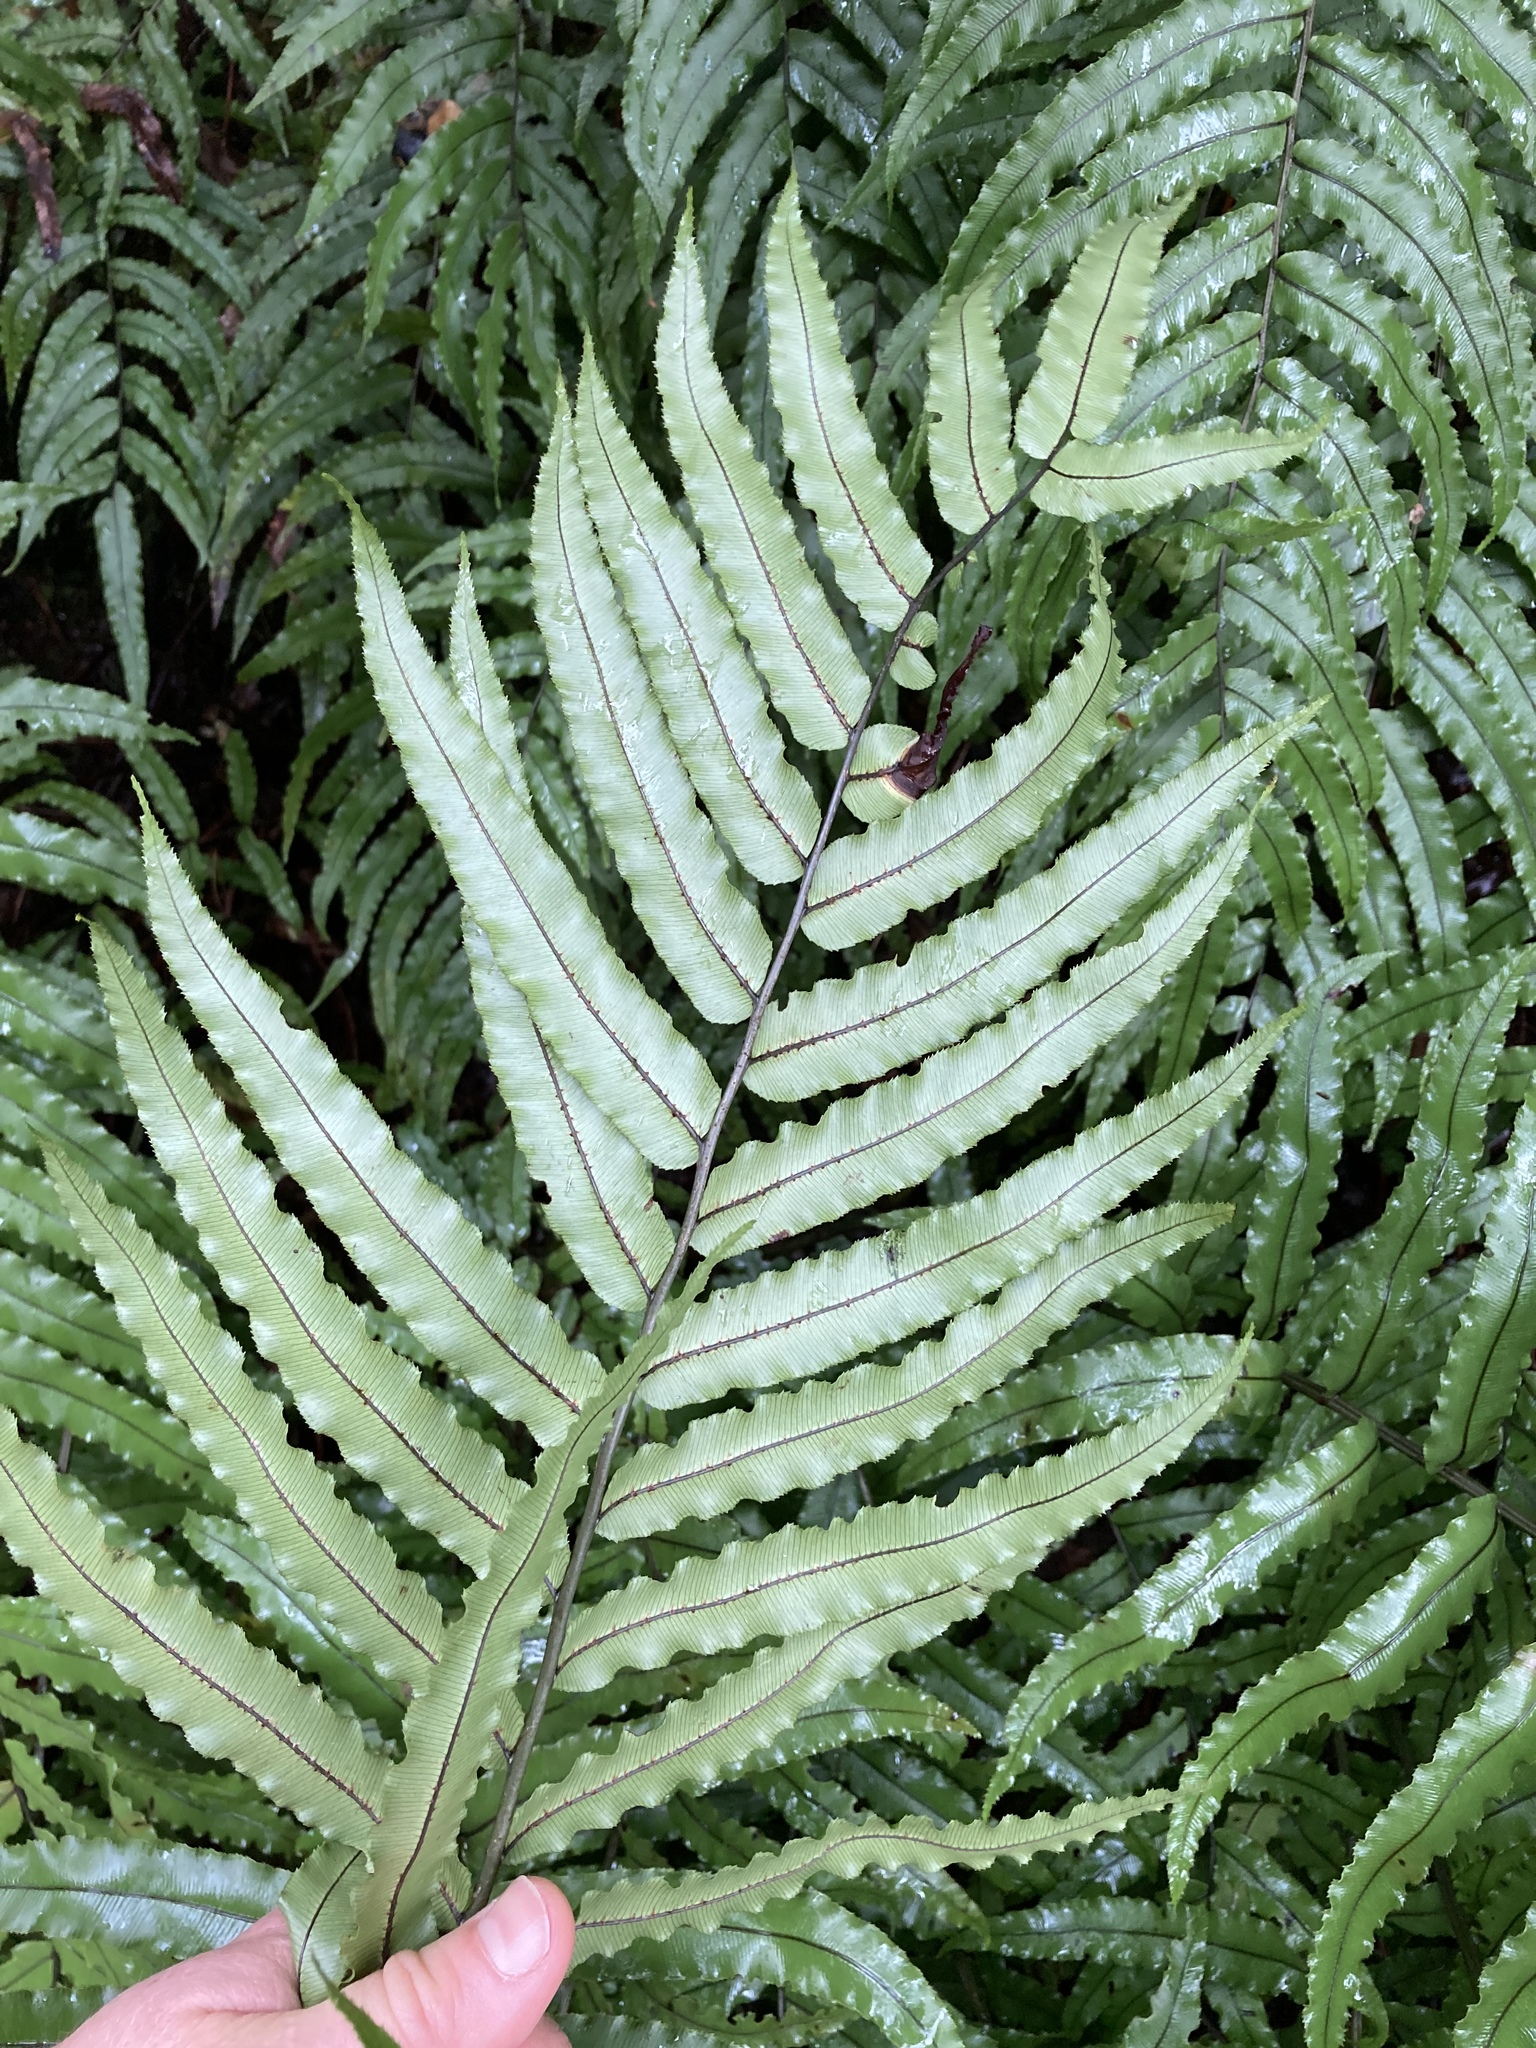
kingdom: Plantae
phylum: Tracheophyta
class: Polypodiopsida
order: Polypodiales
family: Blechnaceae
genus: Parablechnum
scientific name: Parablechnum montanum
